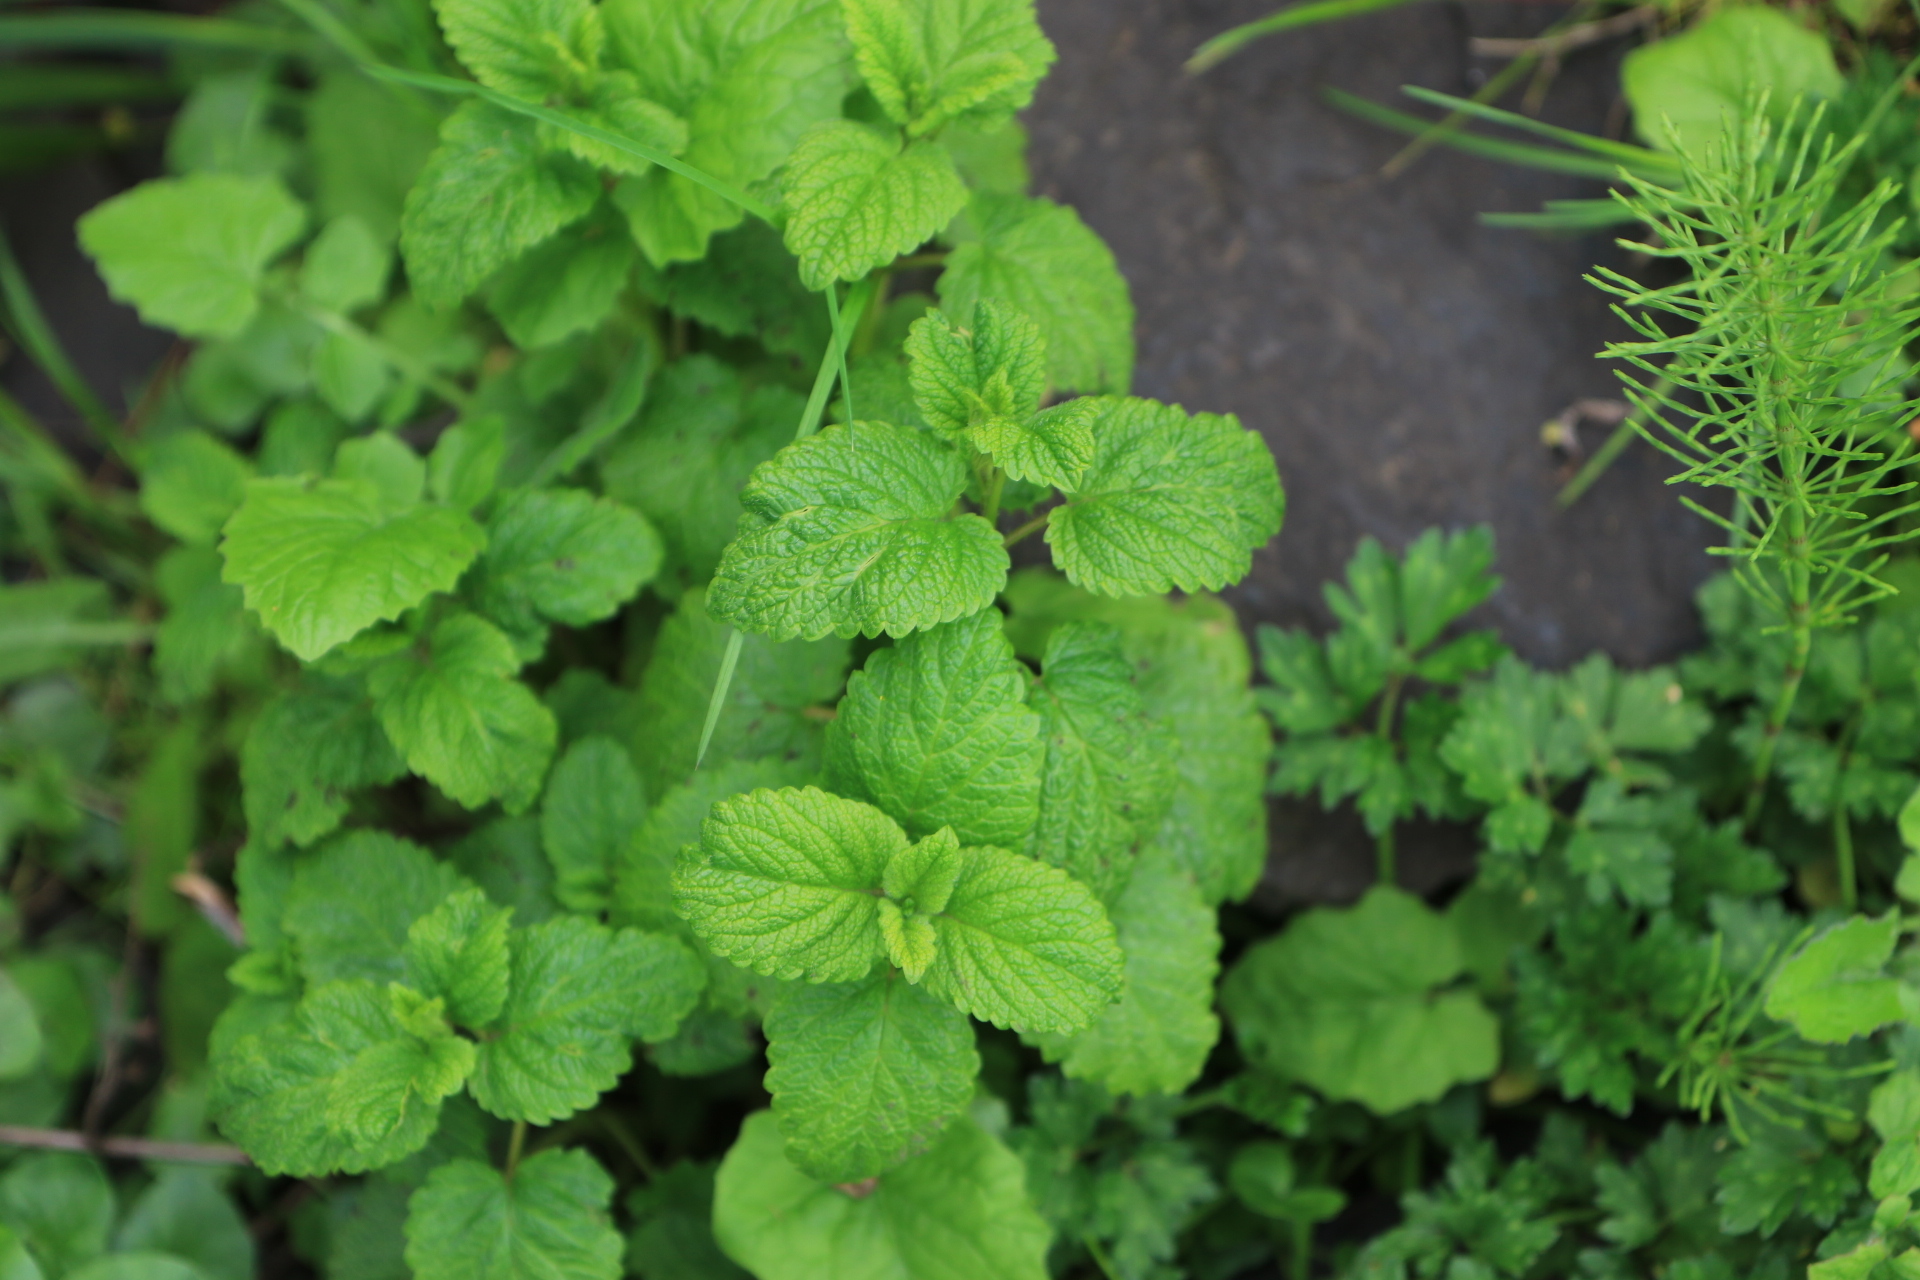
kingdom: Plantae
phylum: Tracheophyta
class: Magnoliopsida
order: Lamiales
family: Lamiaceae
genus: Melissa
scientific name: Melissa officinalis
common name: Balm
